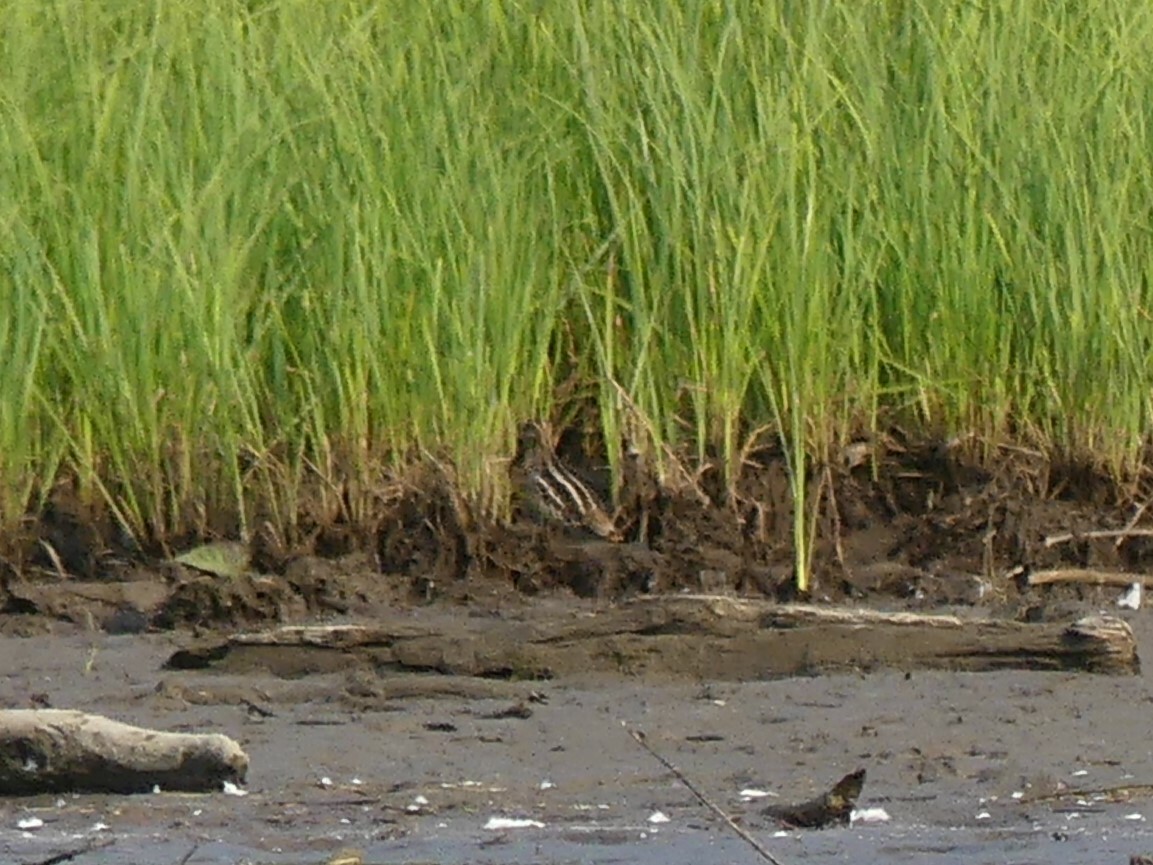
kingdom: Animalia
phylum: Chordata
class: Aves
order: Charadriiformes
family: Scolopacidae
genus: Gallinago
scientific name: Gallinago delicata
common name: Wilson's snipe
